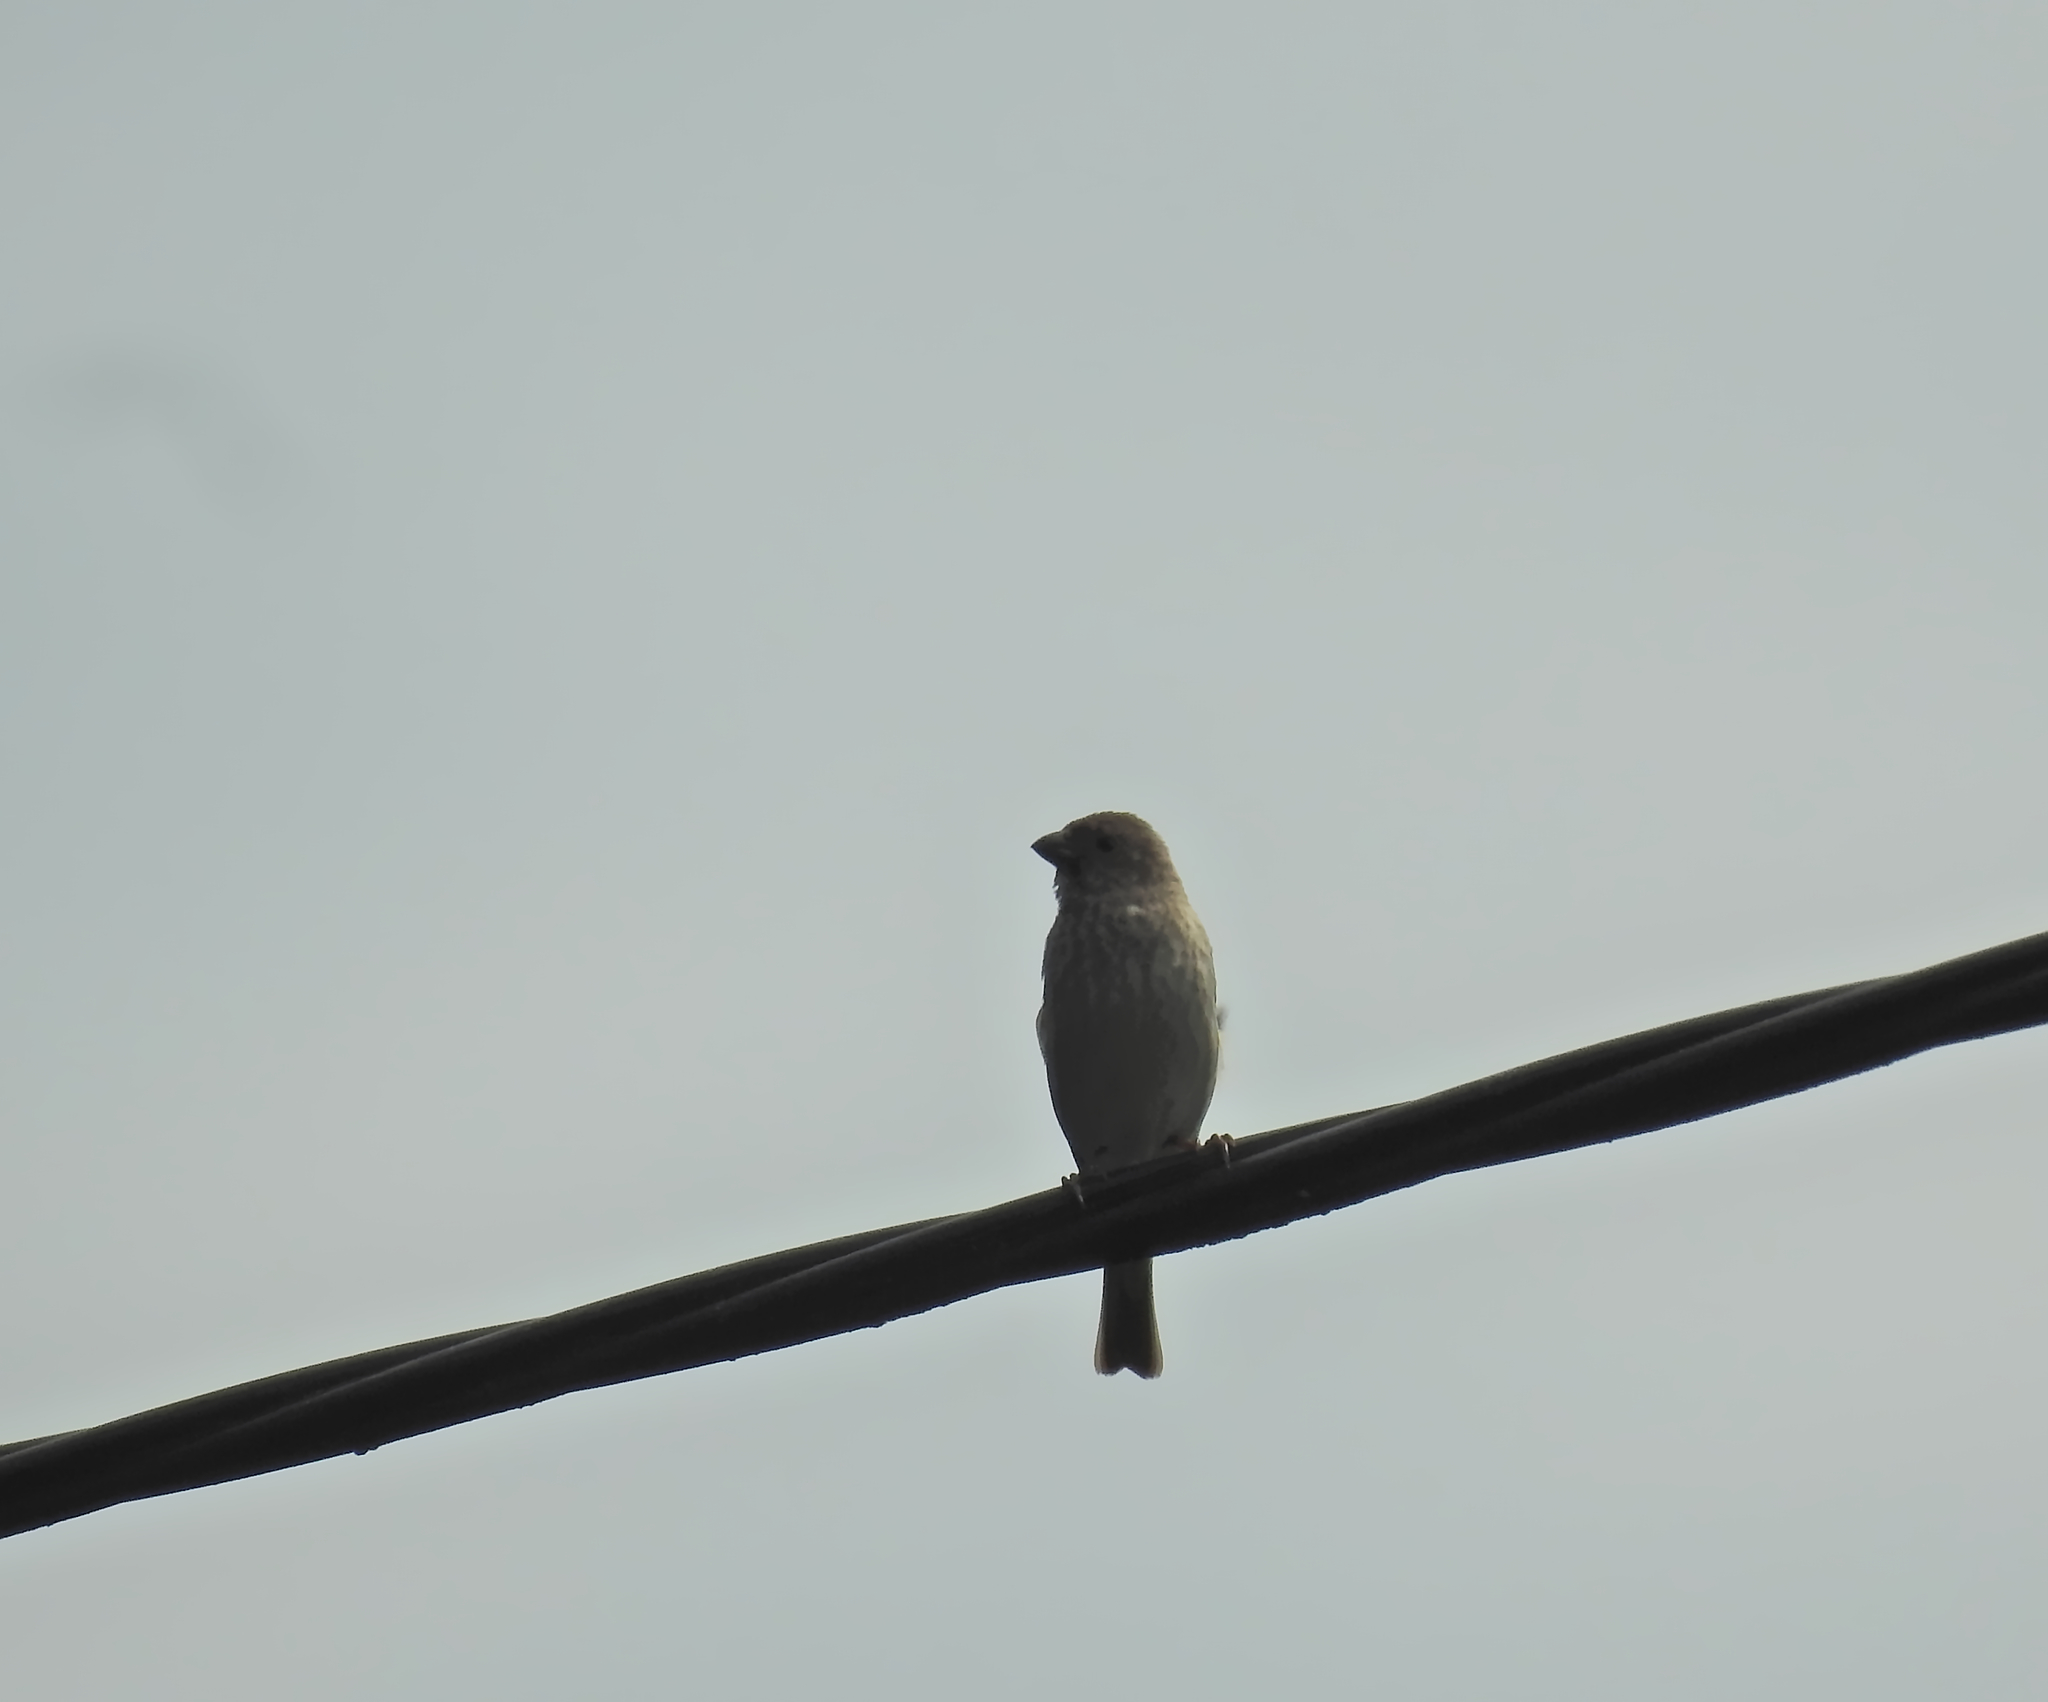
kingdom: Animalia
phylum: Chordata
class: Aves
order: Passeriformes
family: Fringillidae
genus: Carpodacus
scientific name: Carpodacus erythrinus
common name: Common rosefinch
